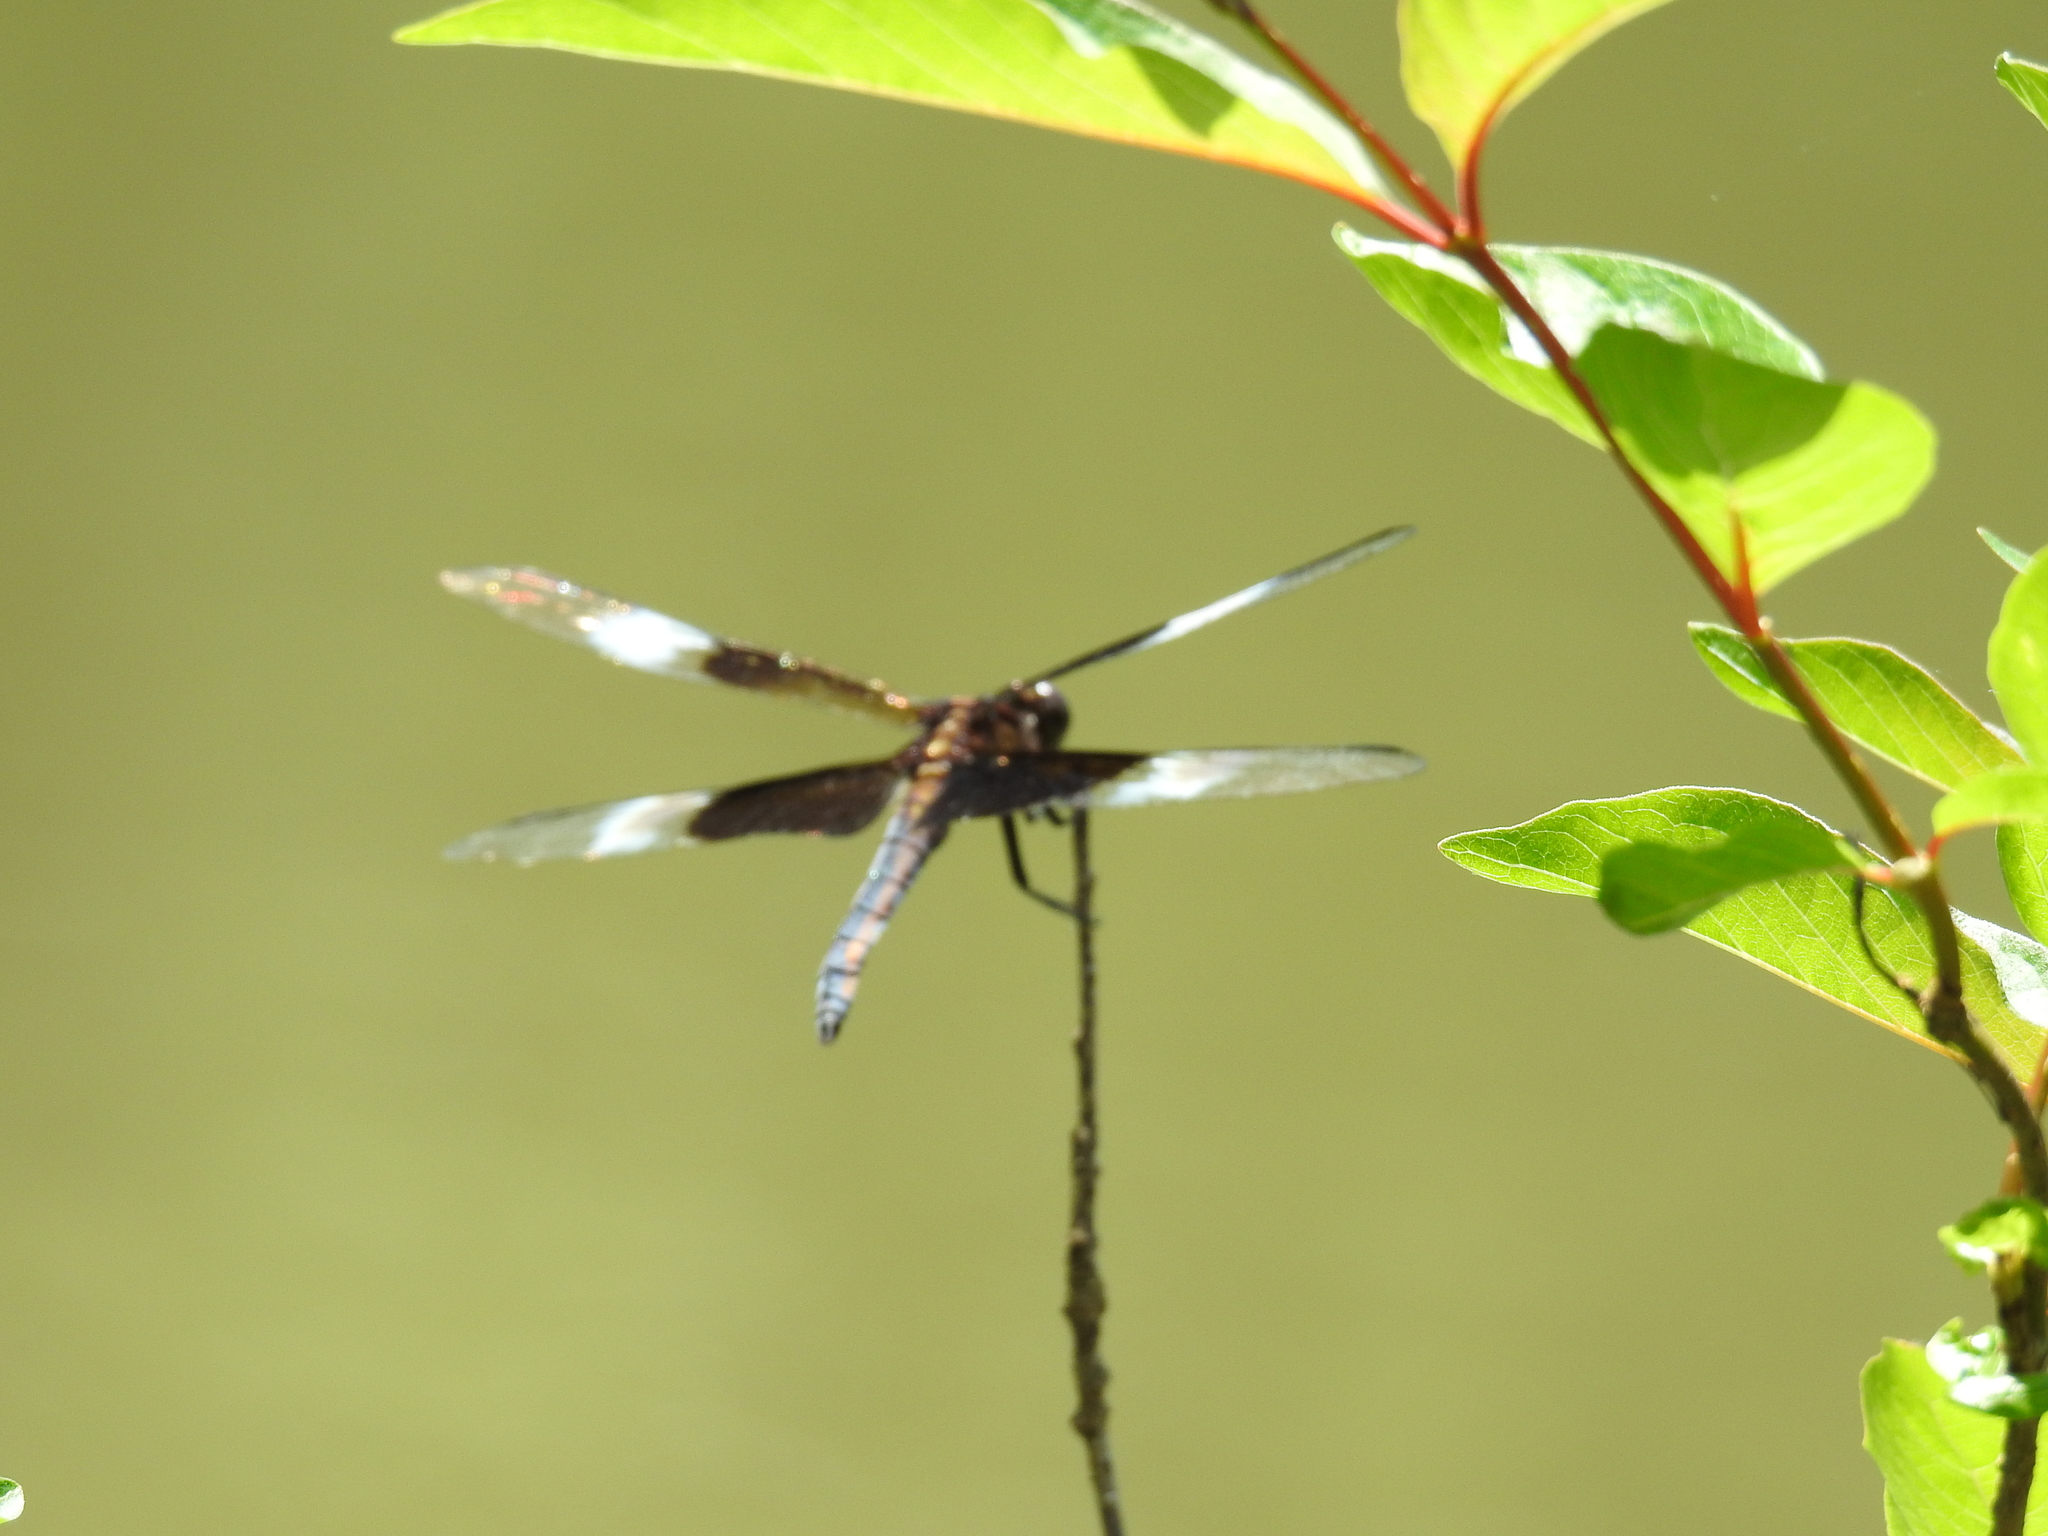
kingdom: Animalia
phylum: Arthropoda
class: Insecta
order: Odonata
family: Libellulidae
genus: Libellula
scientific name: Libellula luctuosa
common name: Widow skimmer
